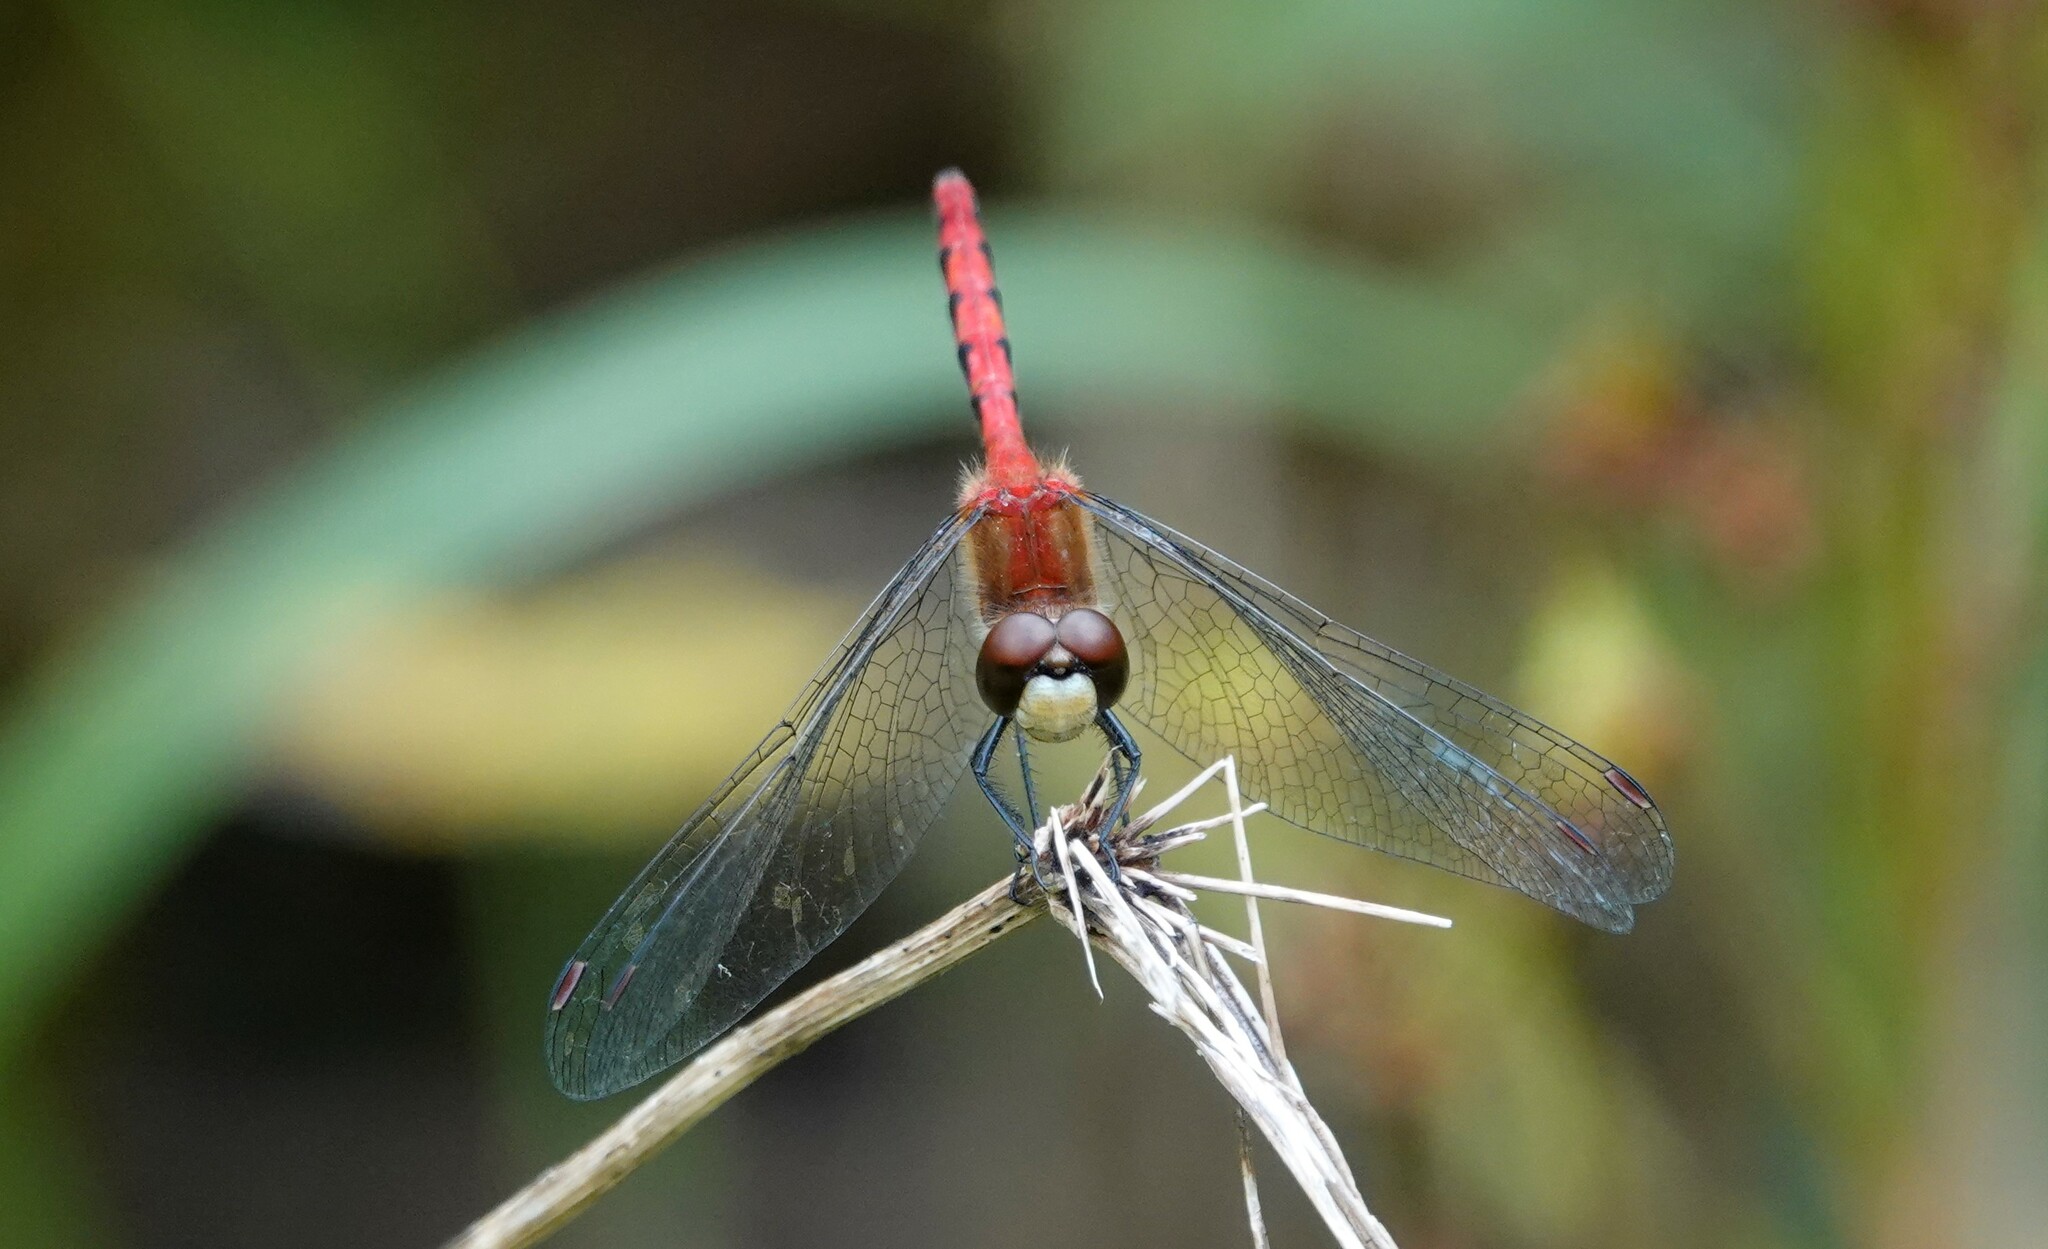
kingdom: Animalia
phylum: Arthropoda
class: Insecta
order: Odonata
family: Libellulidae
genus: Sympetrum
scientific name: Sympetrum obtrusum
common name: White-faced meadowhawk
